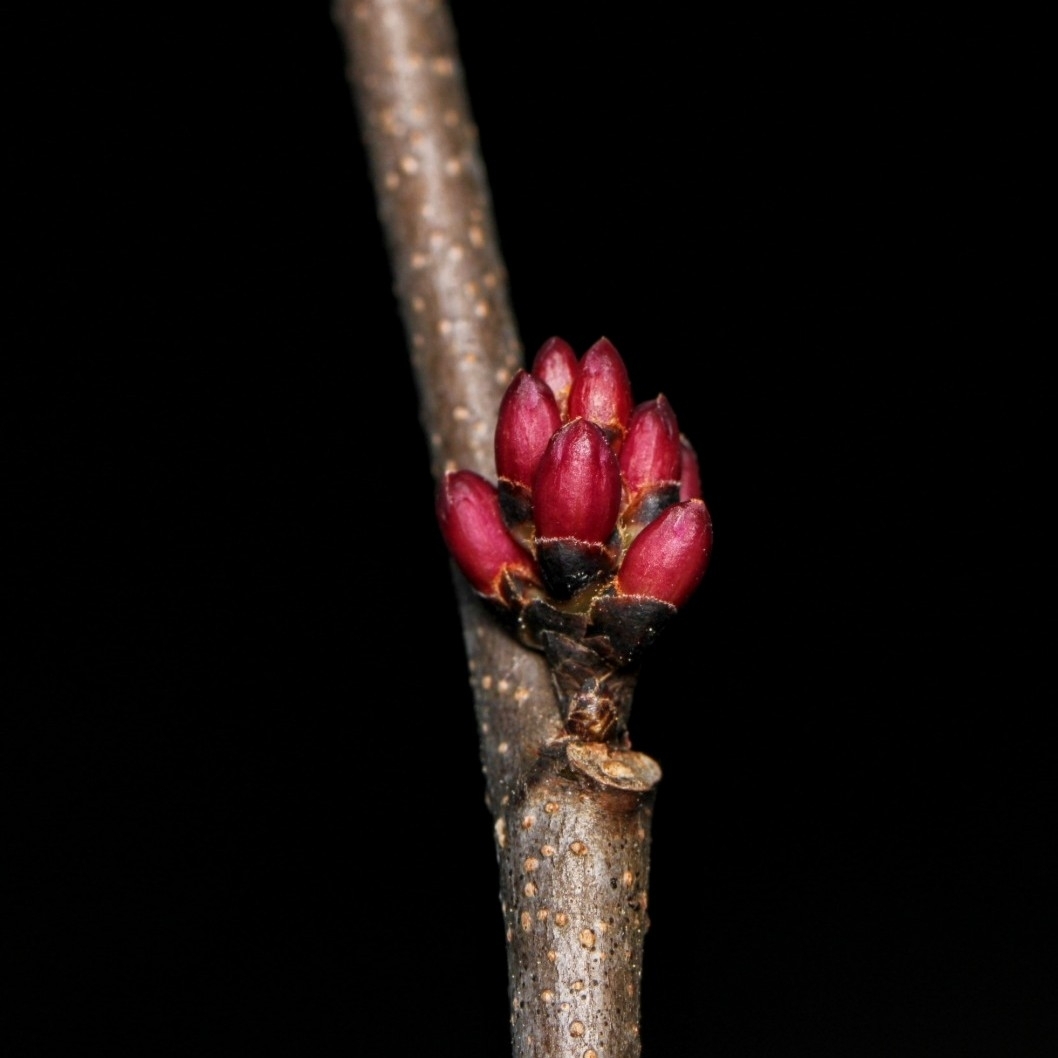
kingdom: Plantae
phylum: Tracheophyta
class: Magnoliopsida
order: Fabales
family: Fabaceae
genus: Cercis
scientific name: Cercis canadensis
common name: Eastern redbud
